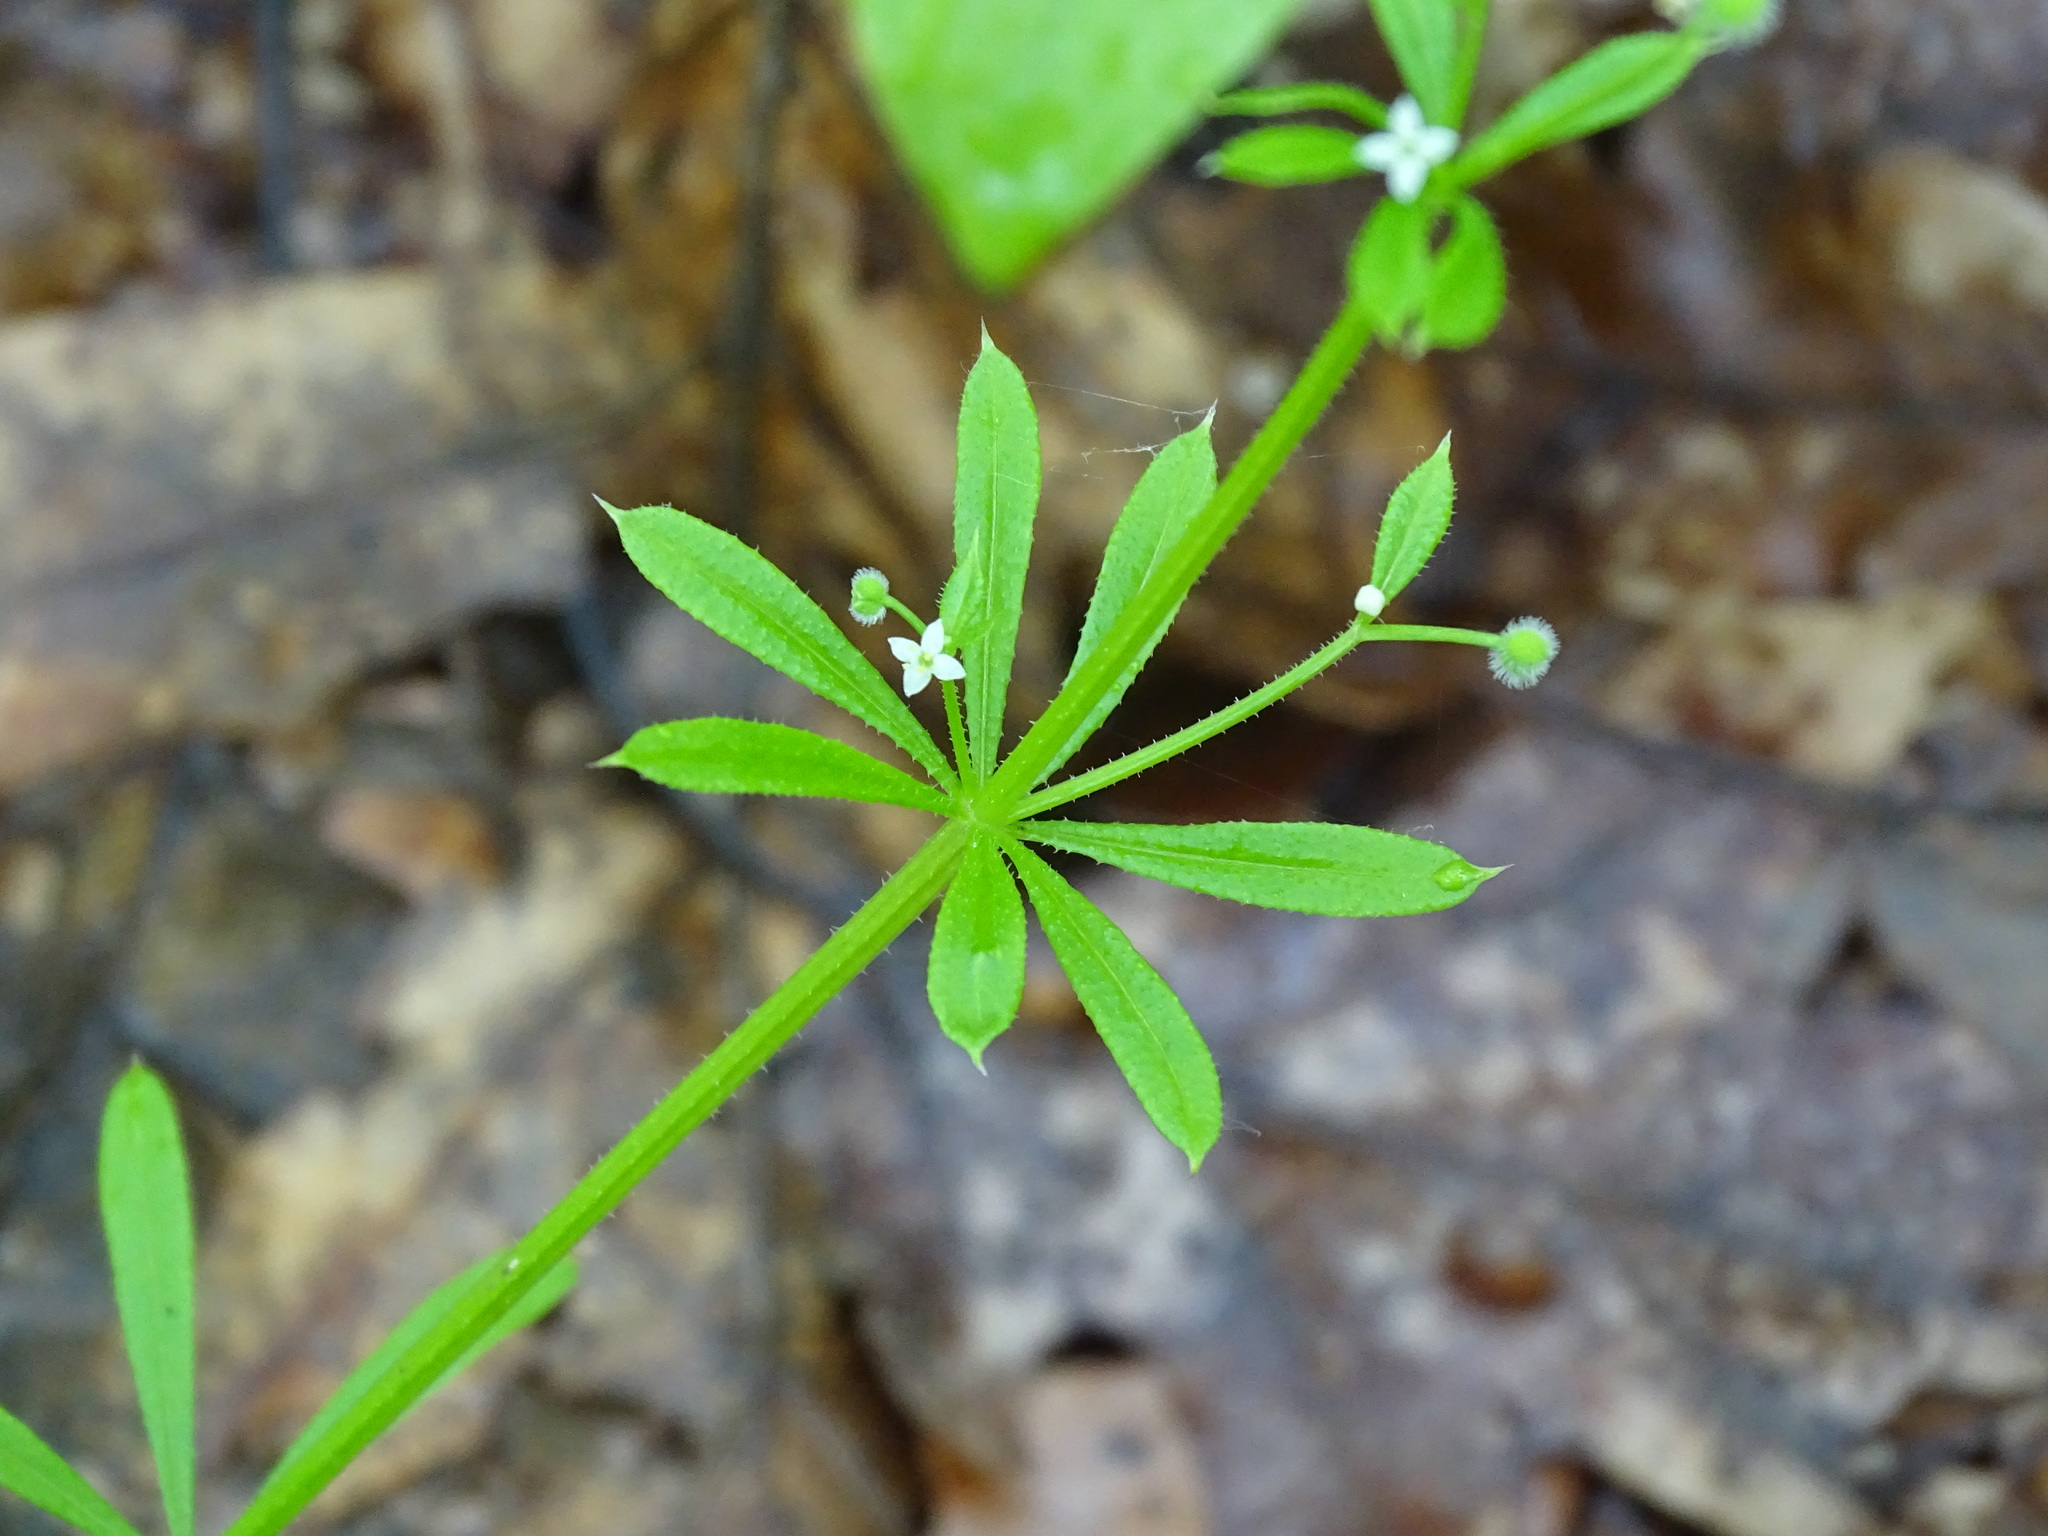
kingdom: Plantae
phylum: Tracheophyta
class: Magnoliopsida
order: Gentianales
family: Rubiaceae
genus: Galium
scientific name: Galium aparine
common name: Cleavers
